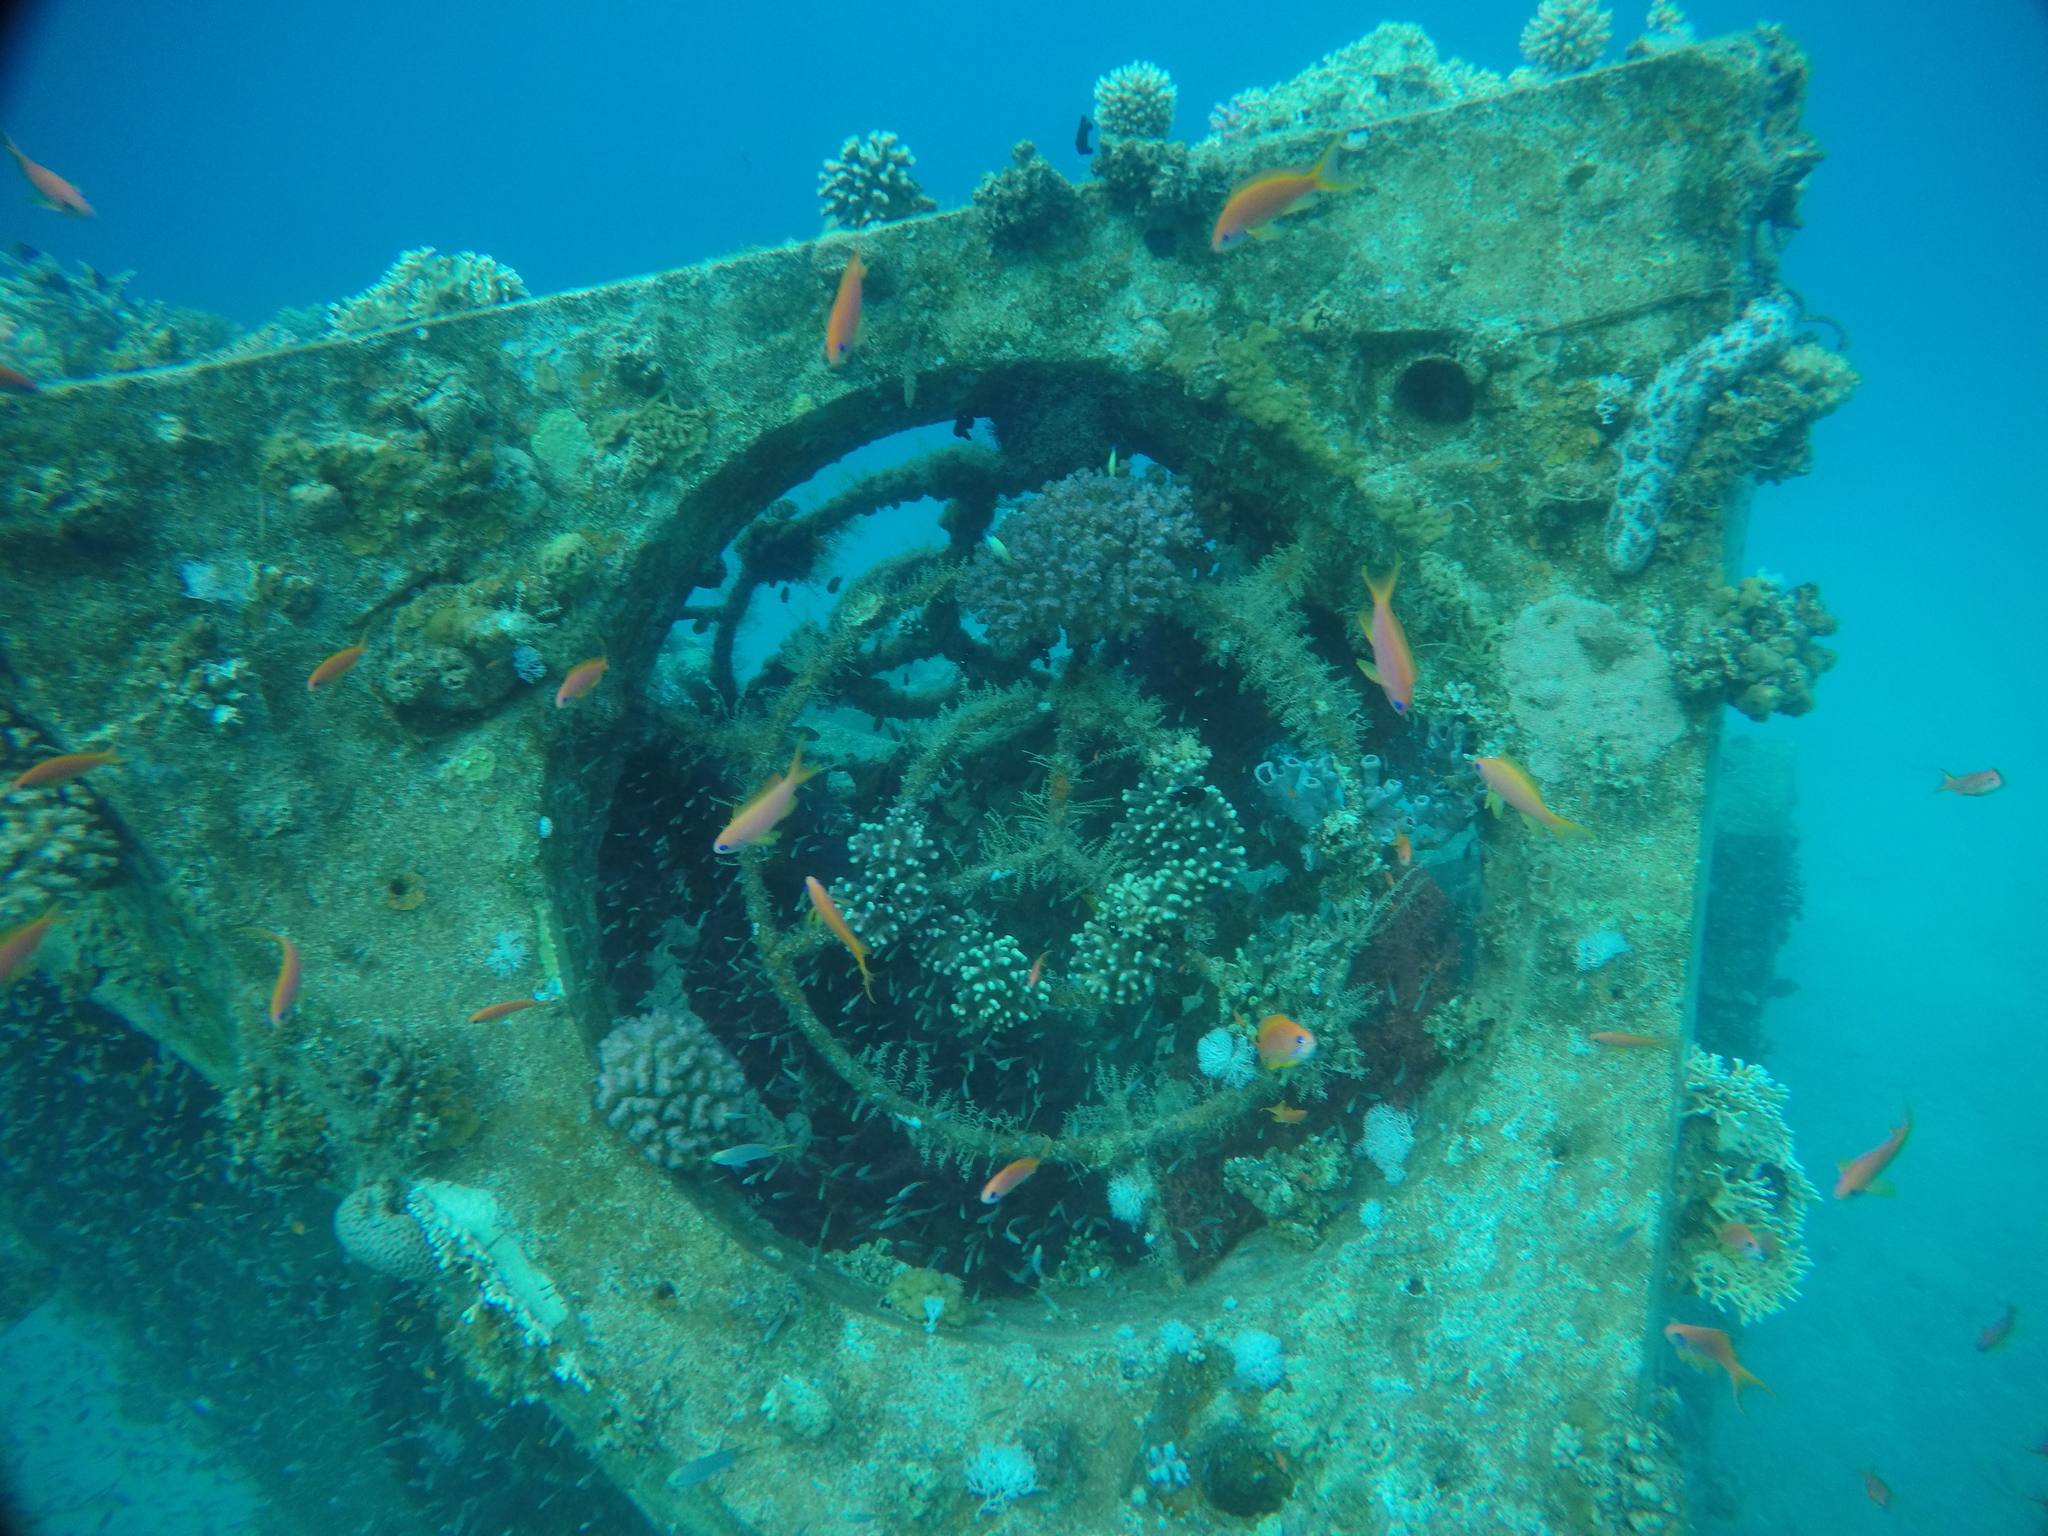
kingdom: Animalia
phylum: Chordata
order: Perciformes
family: Serranidae
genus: Pseudanthias
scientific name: Pseudanthias squamipinnis
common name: Scalefin anthias
